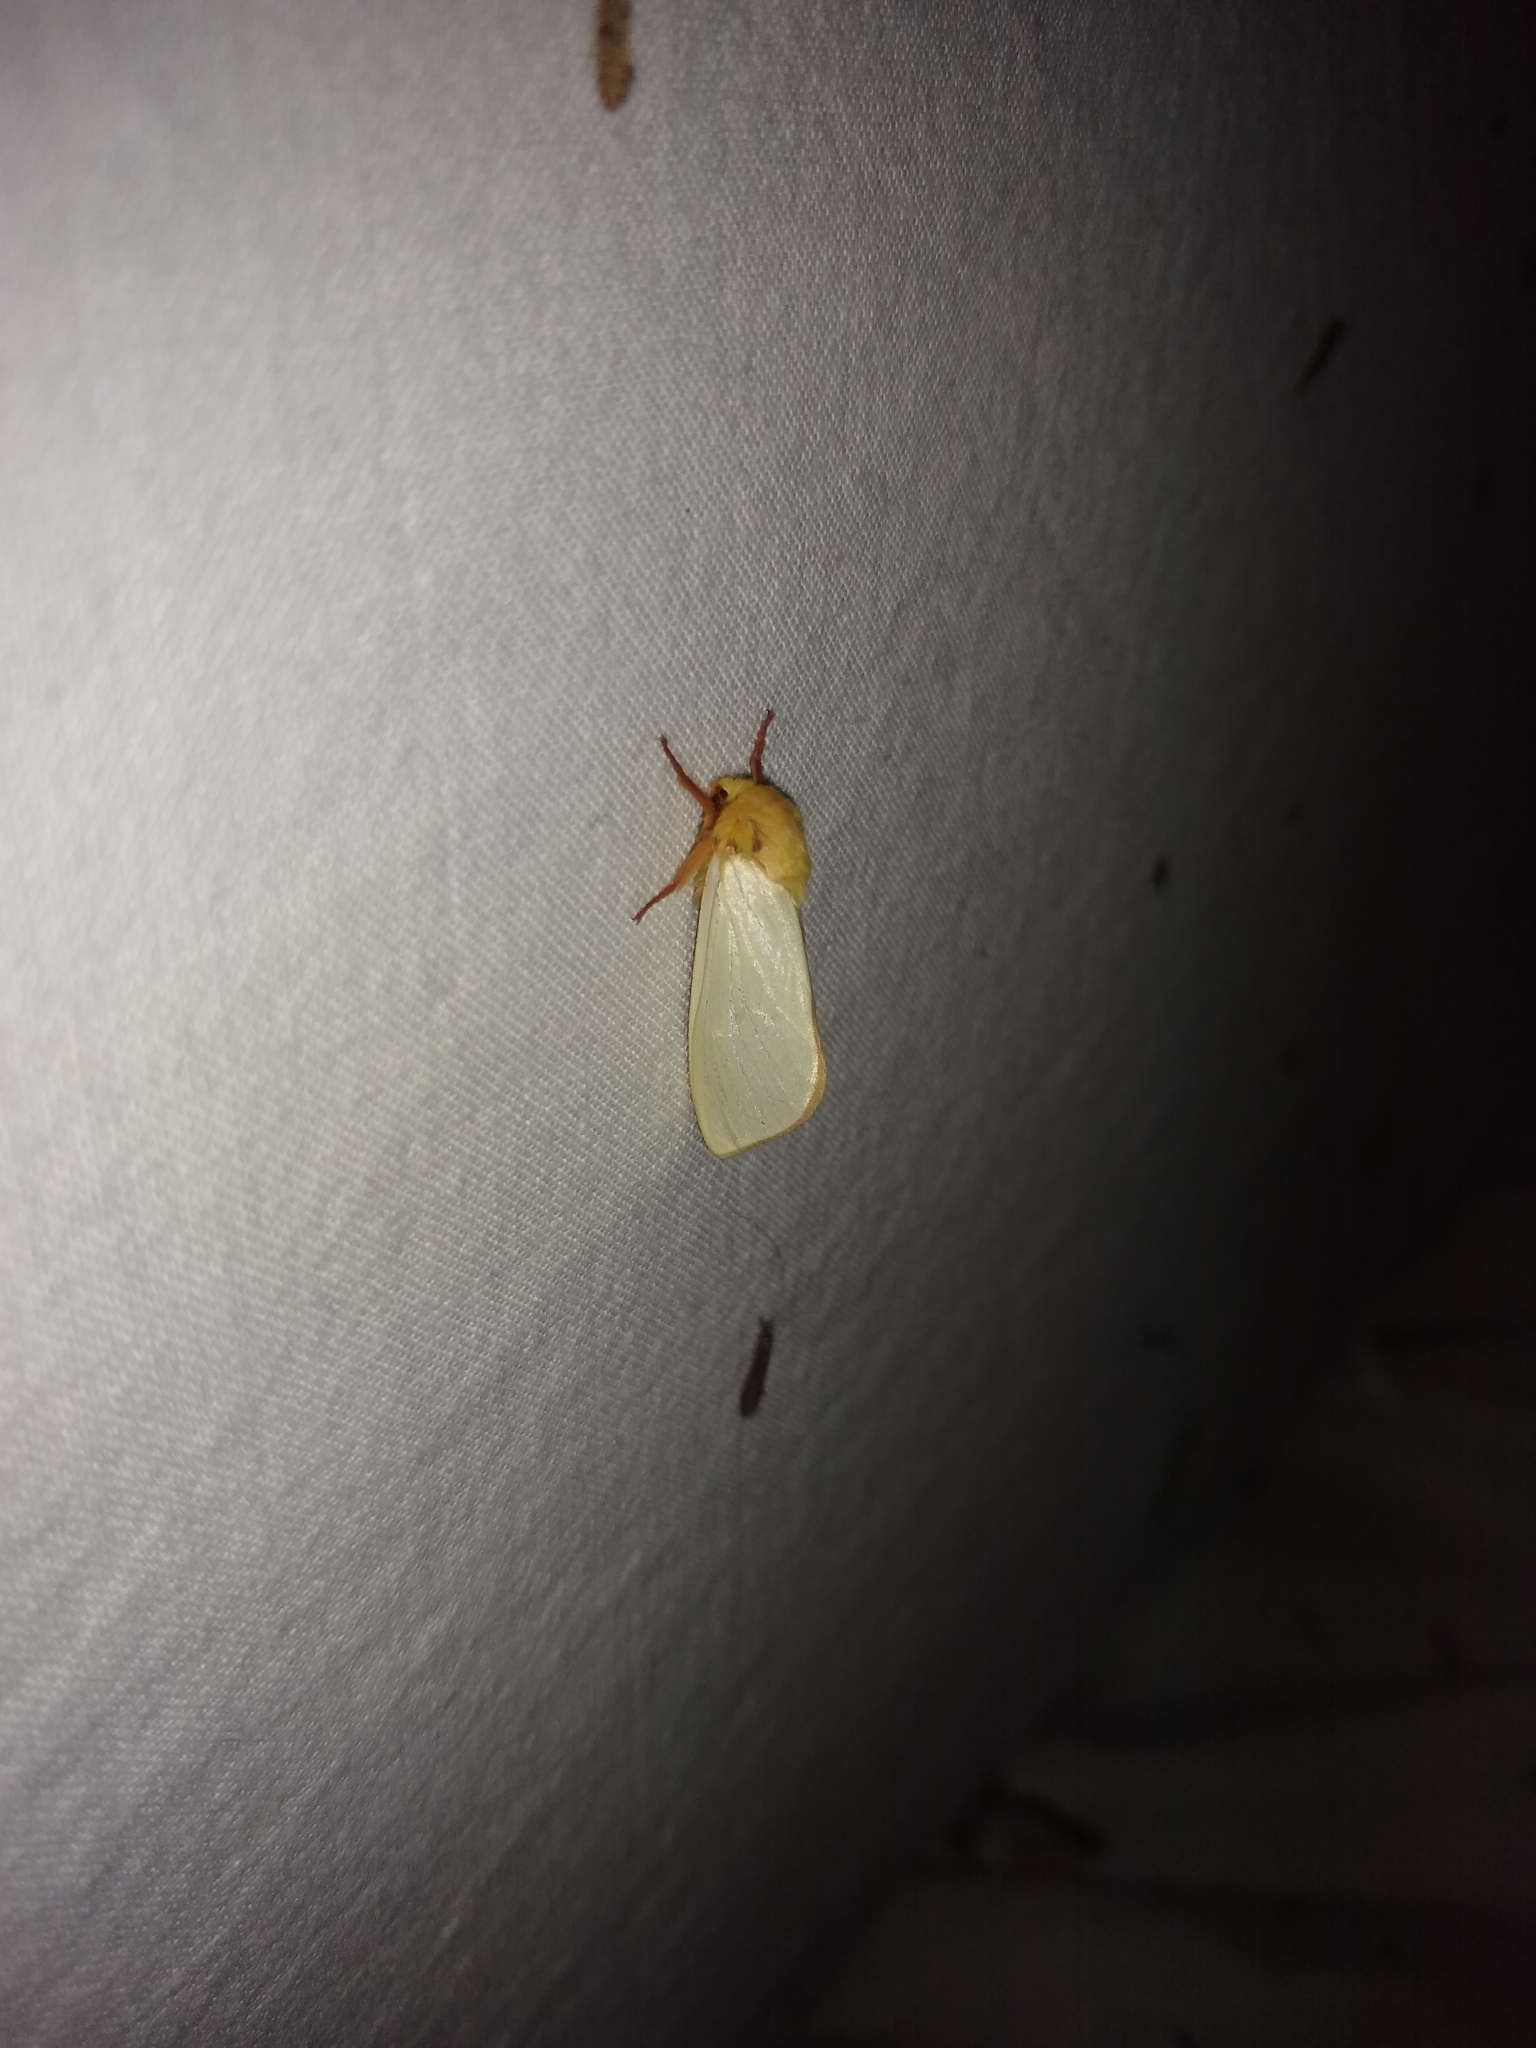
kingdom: Animalia
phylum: Arthropoda
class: Insecta
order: Lepidoptera
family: Hepialidae
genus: Hepialus
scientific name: Hepialus humuli
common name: Ghost moth
